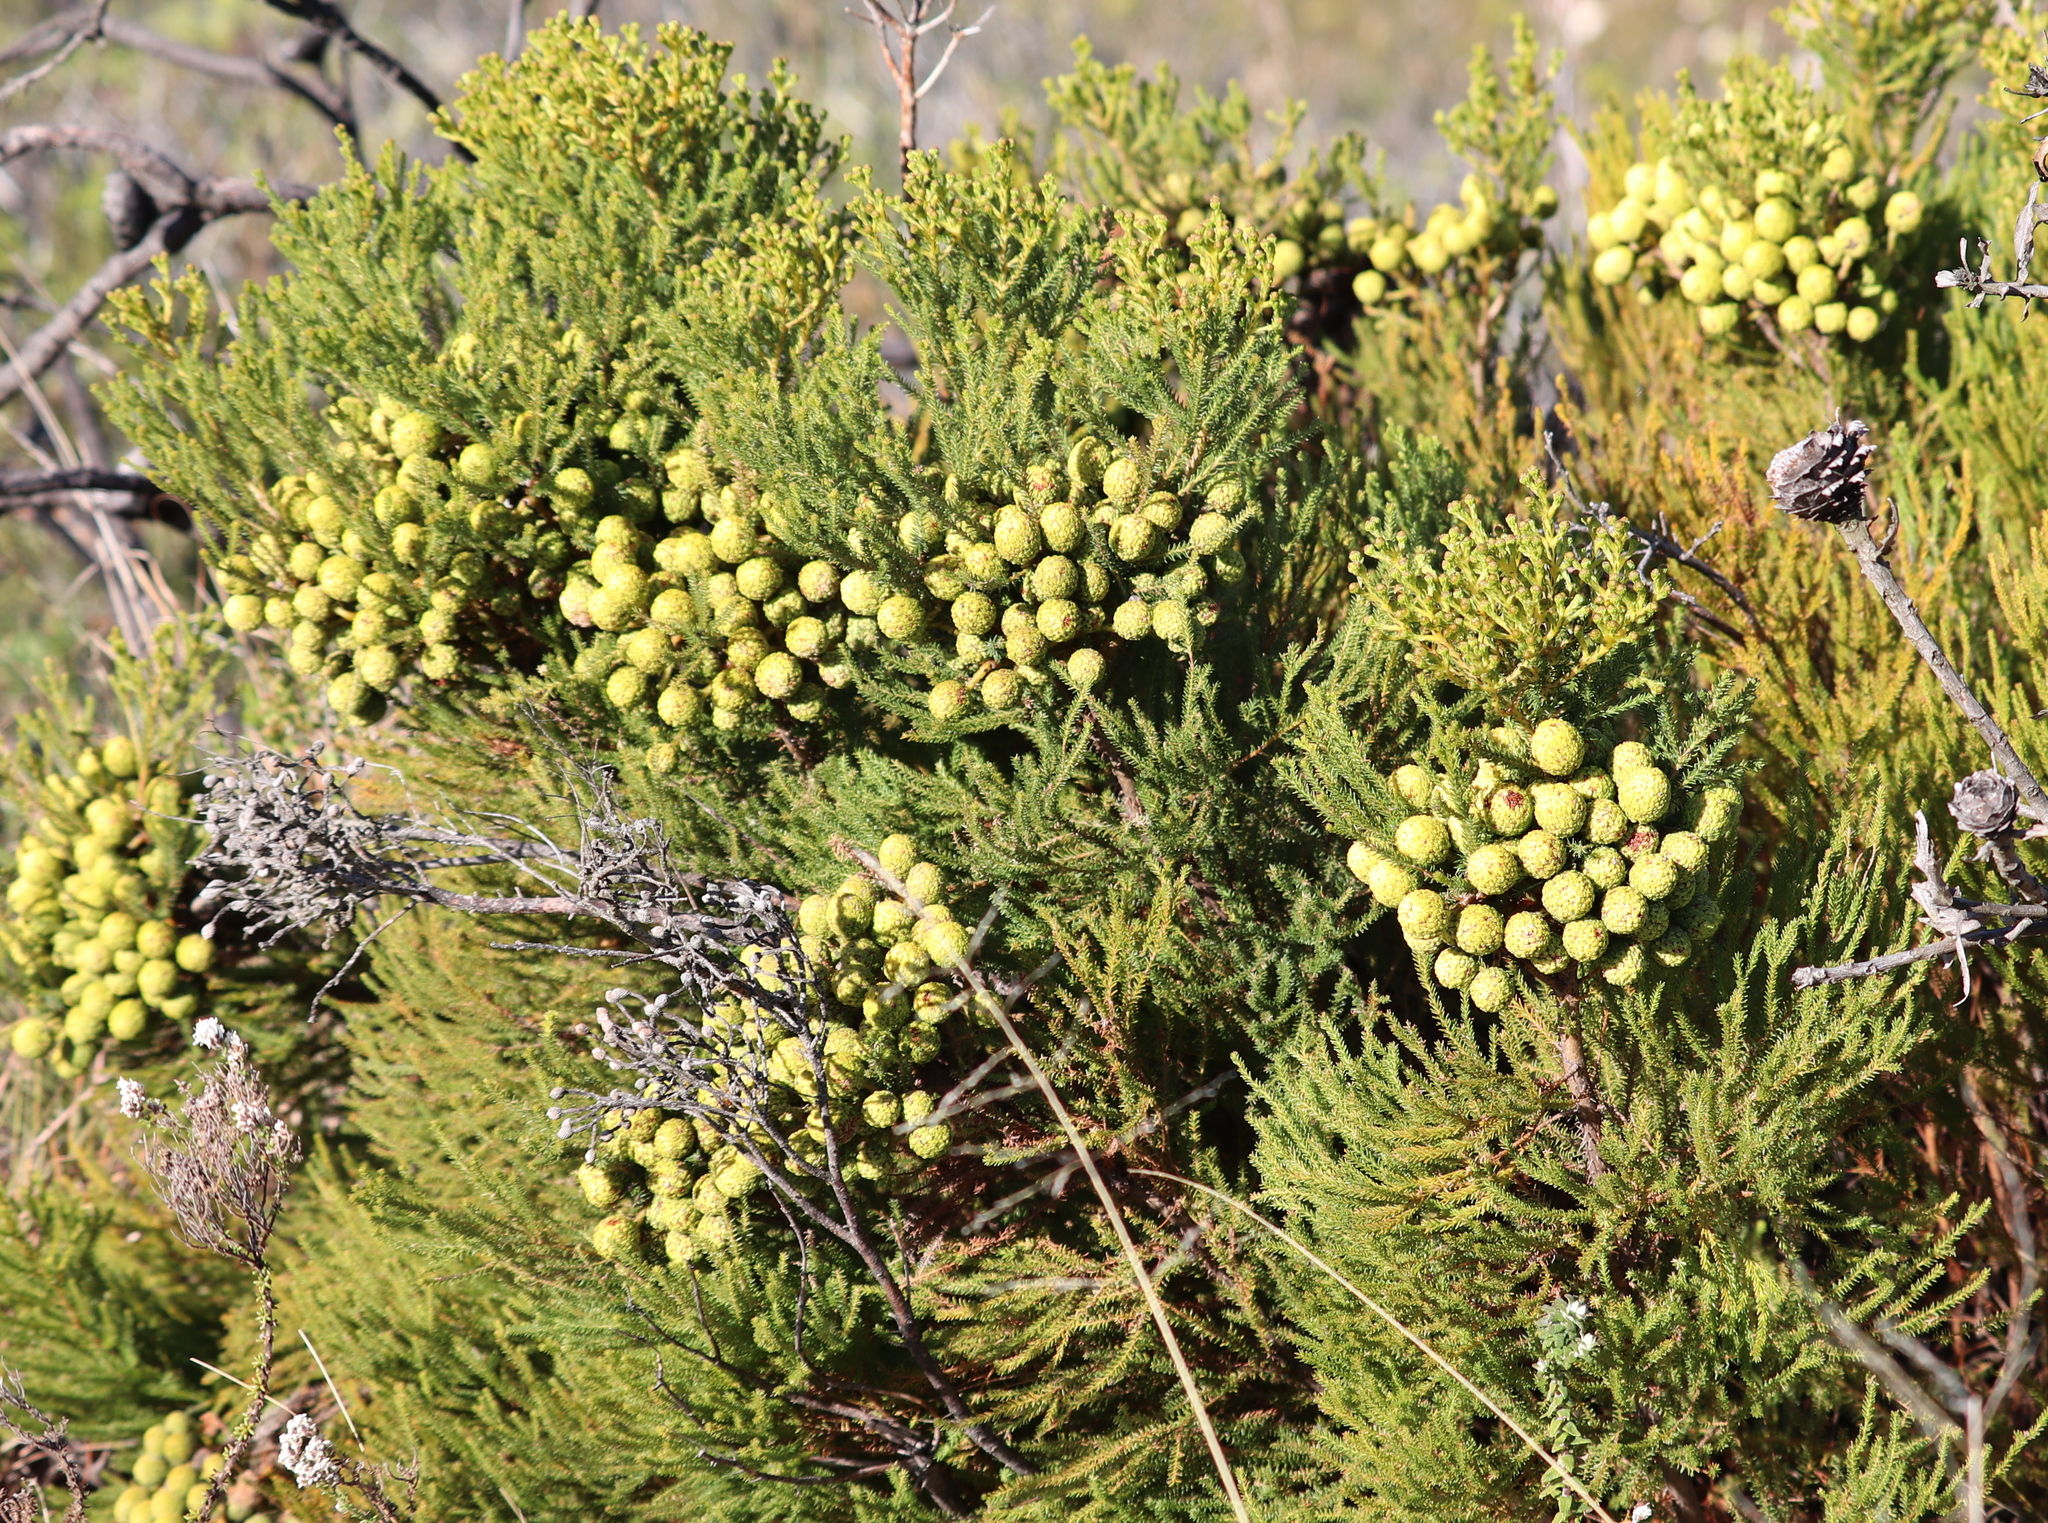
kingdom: Plantae
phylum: Tracheophyta
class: Magnoliopsida
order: Bruniales
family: Bruniaceae
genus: Brunia
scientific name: Brunia noduliflora
